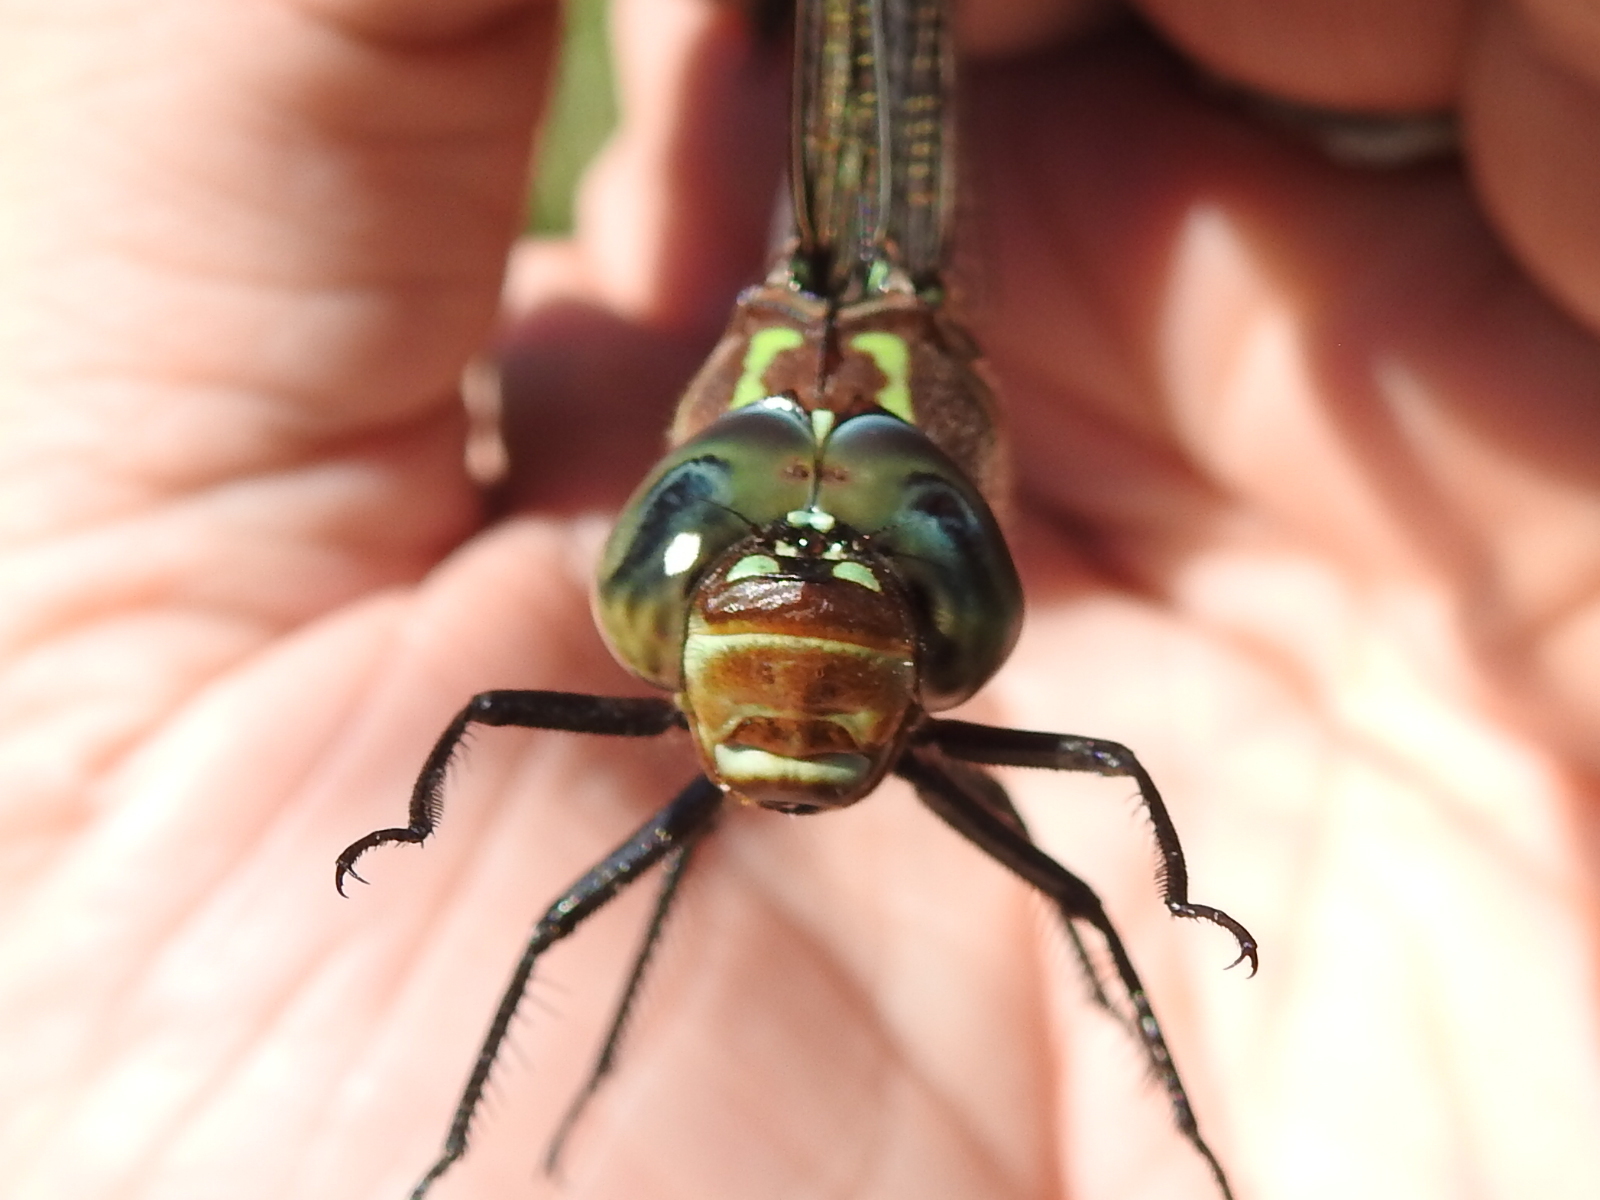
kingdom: Animalia
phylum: Arthropoda
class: Insecta
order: Odonata
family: Aeshnidae
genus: Epiaeschna
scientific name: Epiaeschna heros
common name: Swamp darner
